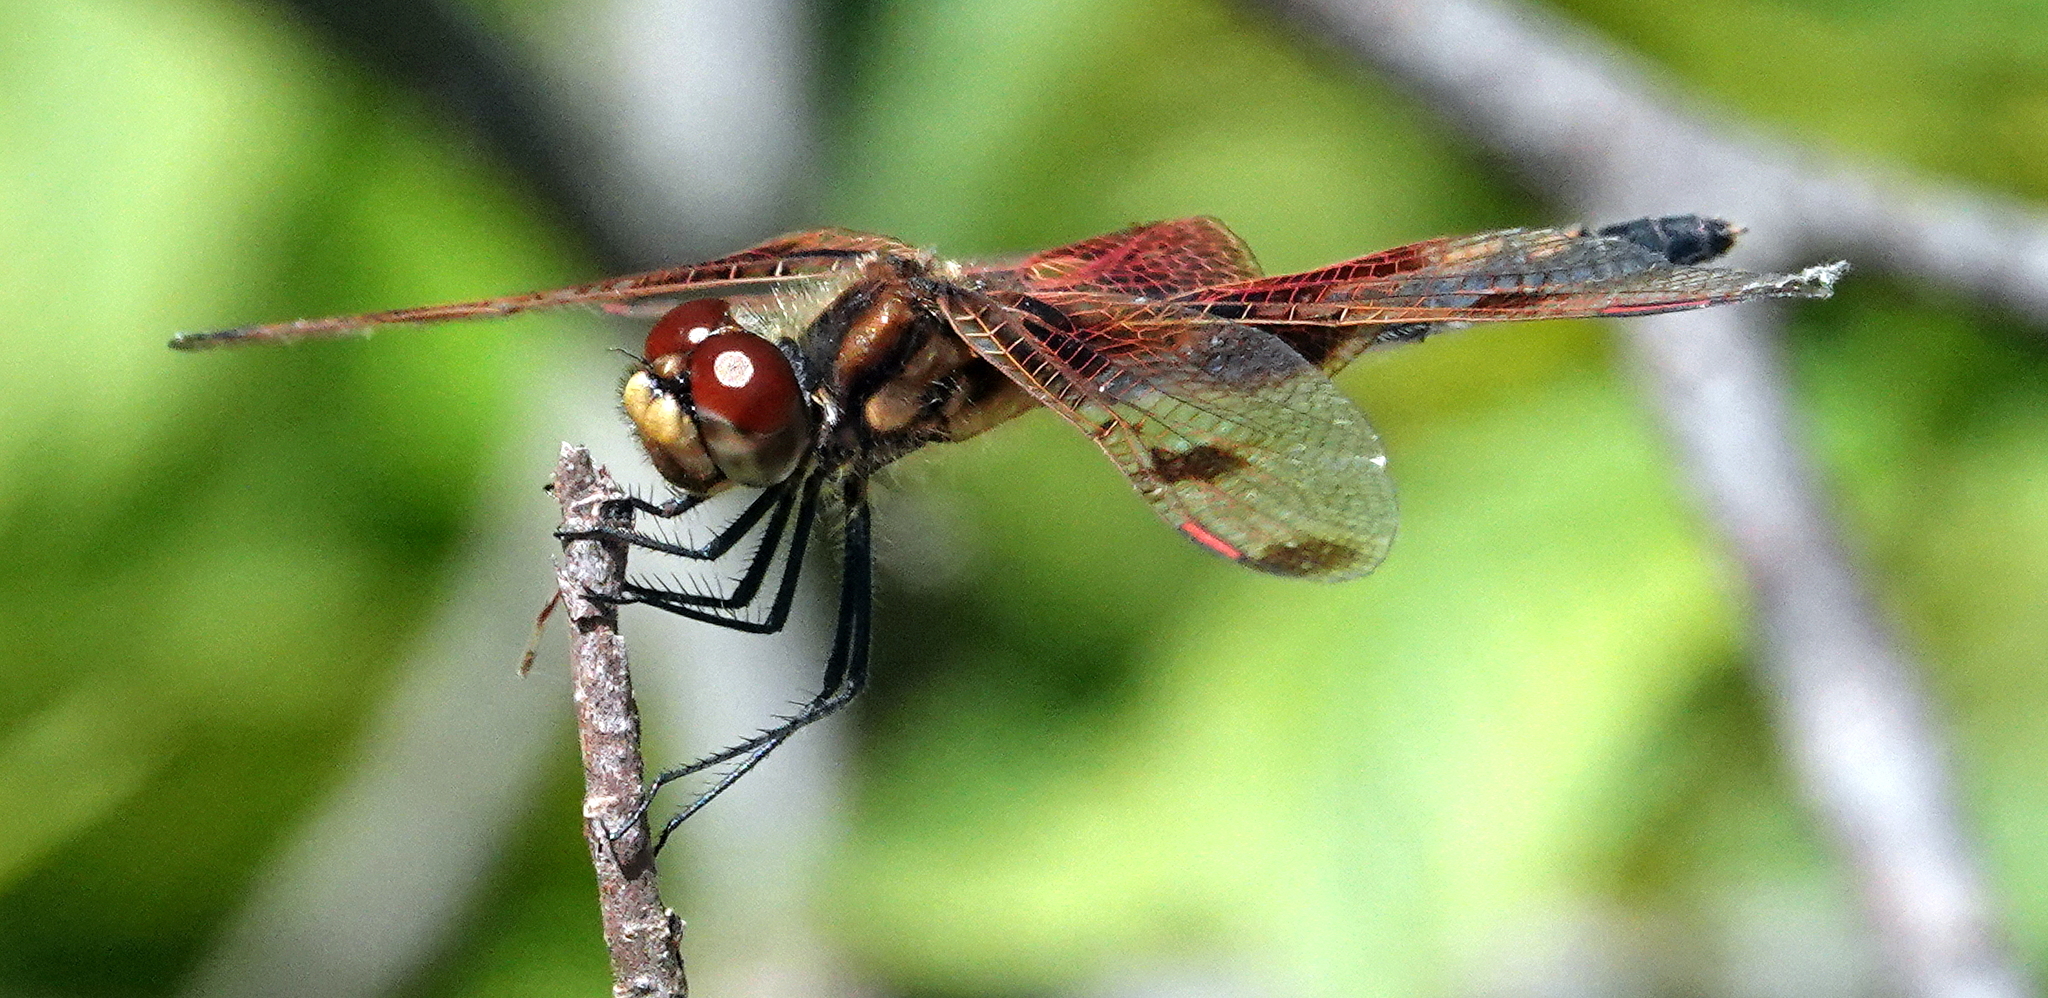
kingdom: Animalia
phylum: Arthropoda
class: Insecta
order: Odonata
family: Libellulidae
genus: Celithemis
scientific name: Celithemis elisa
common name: Calico pennant
